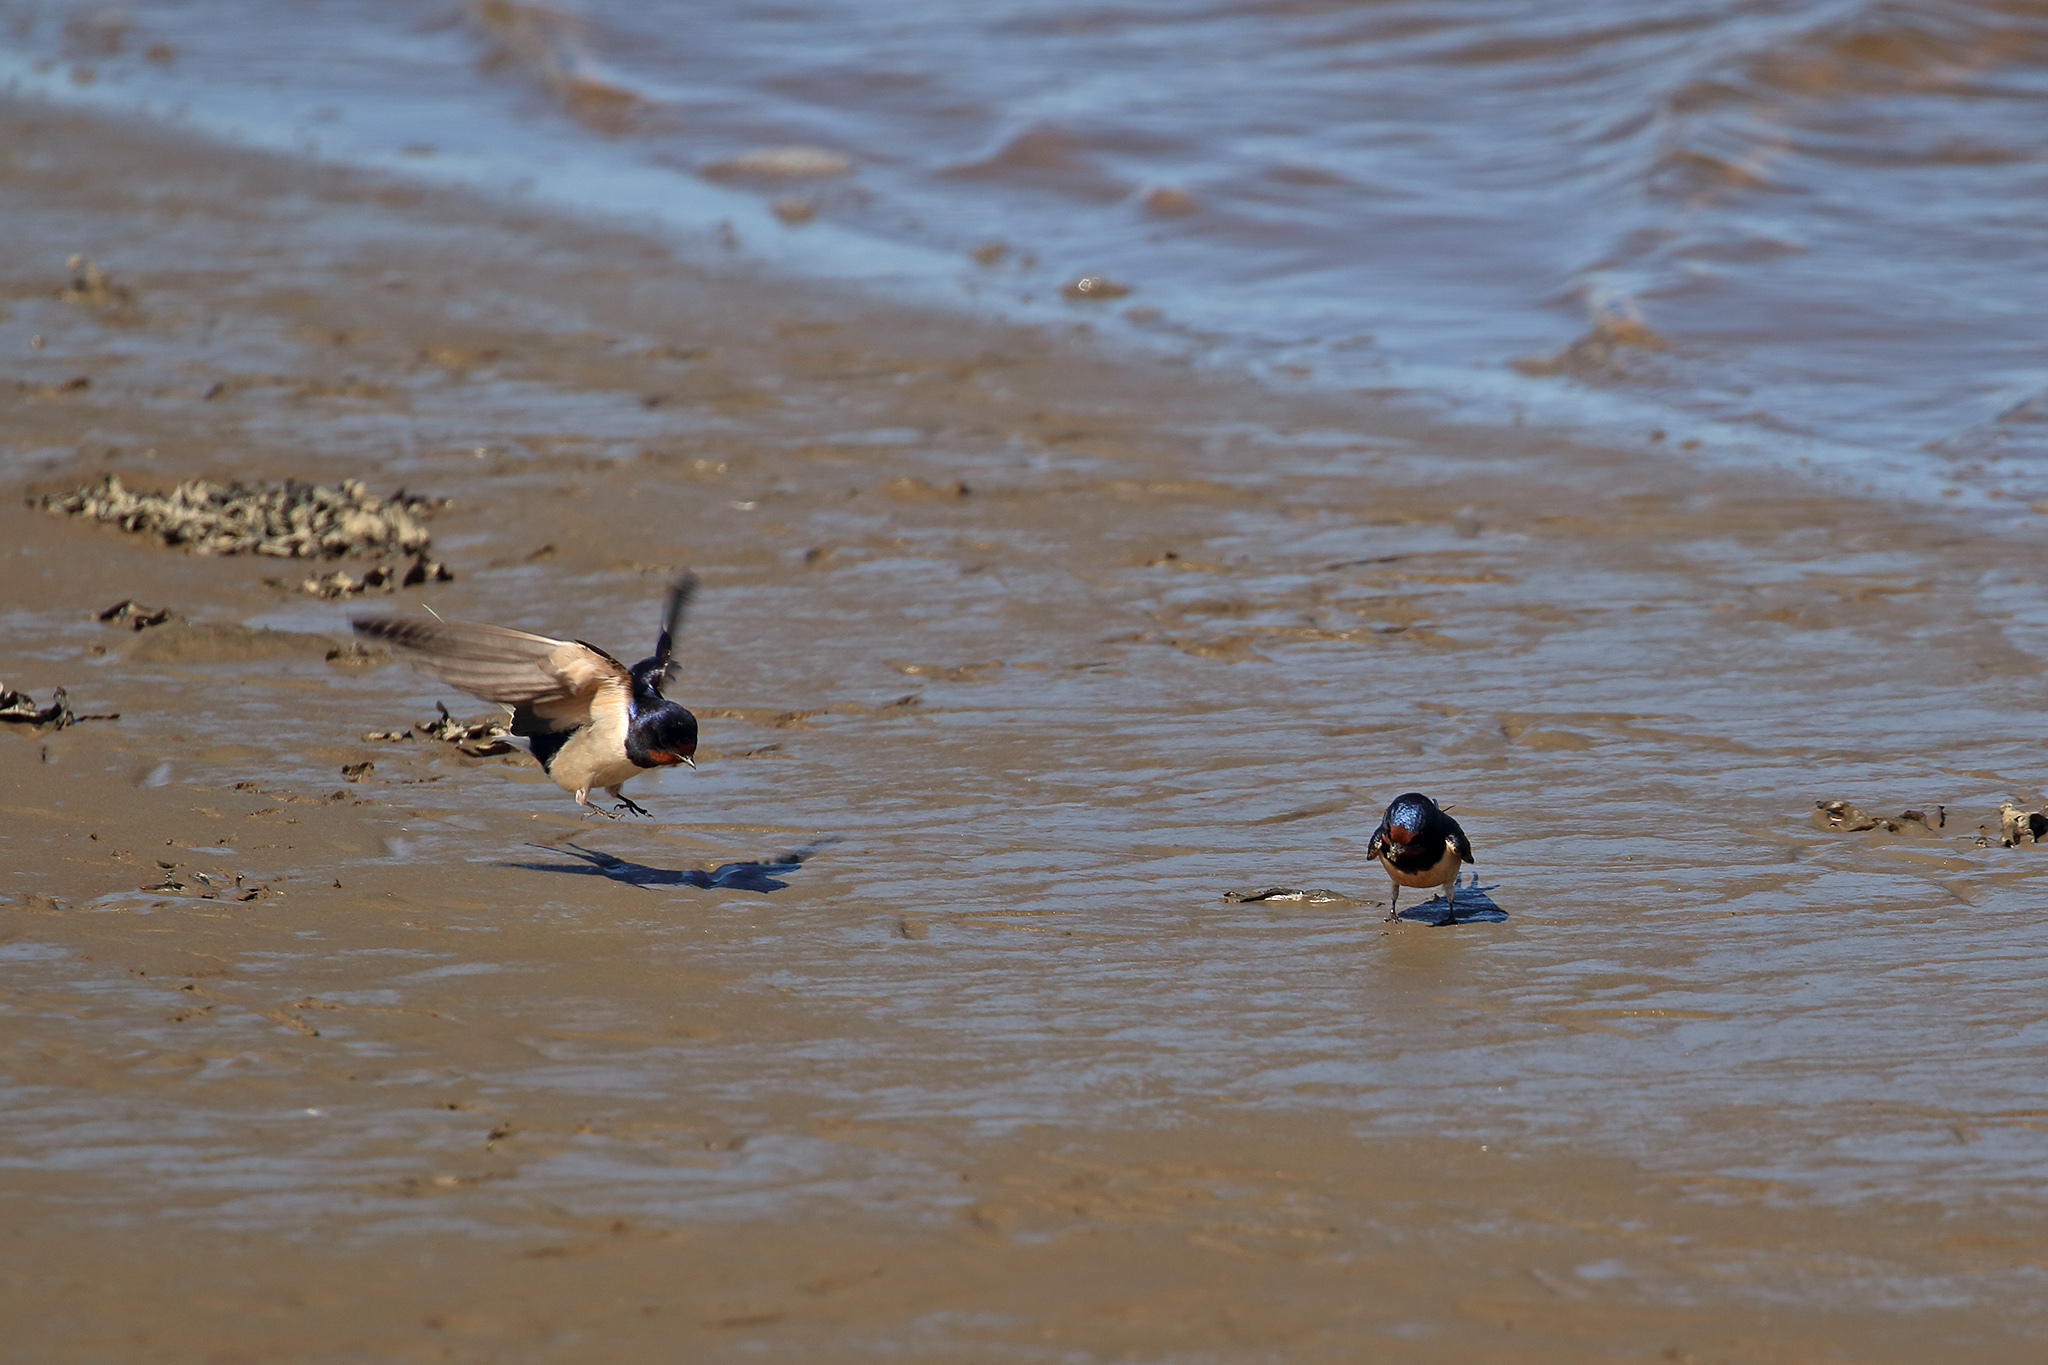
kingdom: Animalia
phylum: Chordata
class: Aves
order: Passeriformes
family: Hirundinidae
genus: Hirundo
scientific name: Hirundo rustica
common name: Barn swallow
